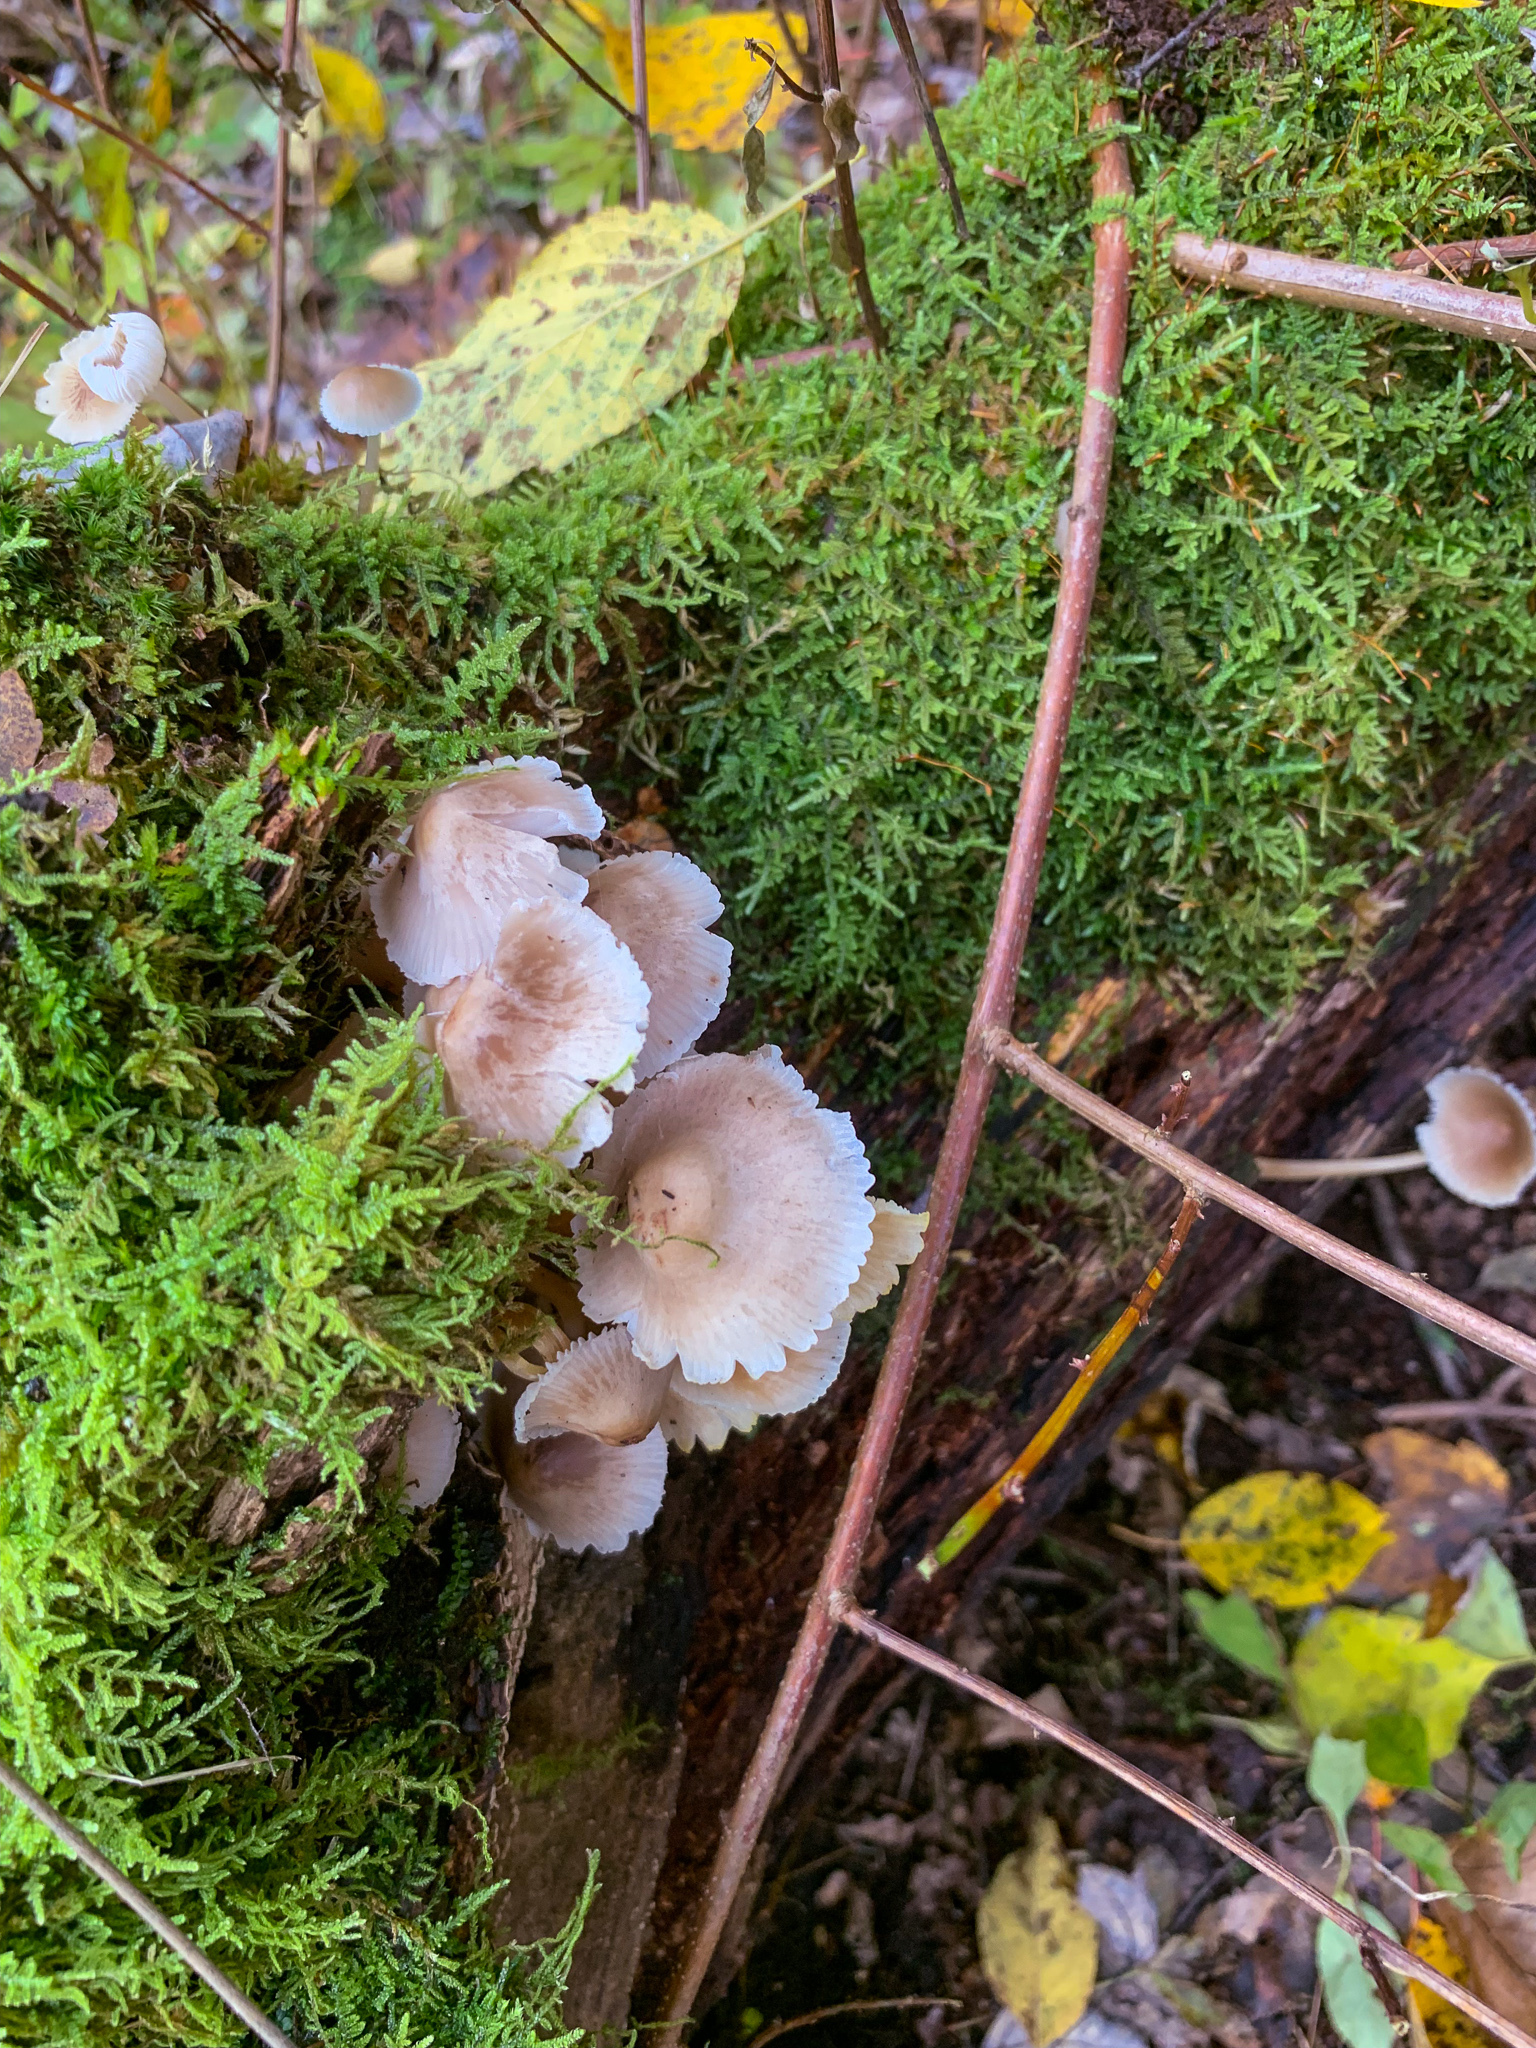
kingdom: Fungi
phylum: Basidiomycota
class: Agaricomycetes
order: Agaricales
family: Mycenaceae
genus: Mycena
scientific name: Mycena inclinata
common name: Clustered bonnet
